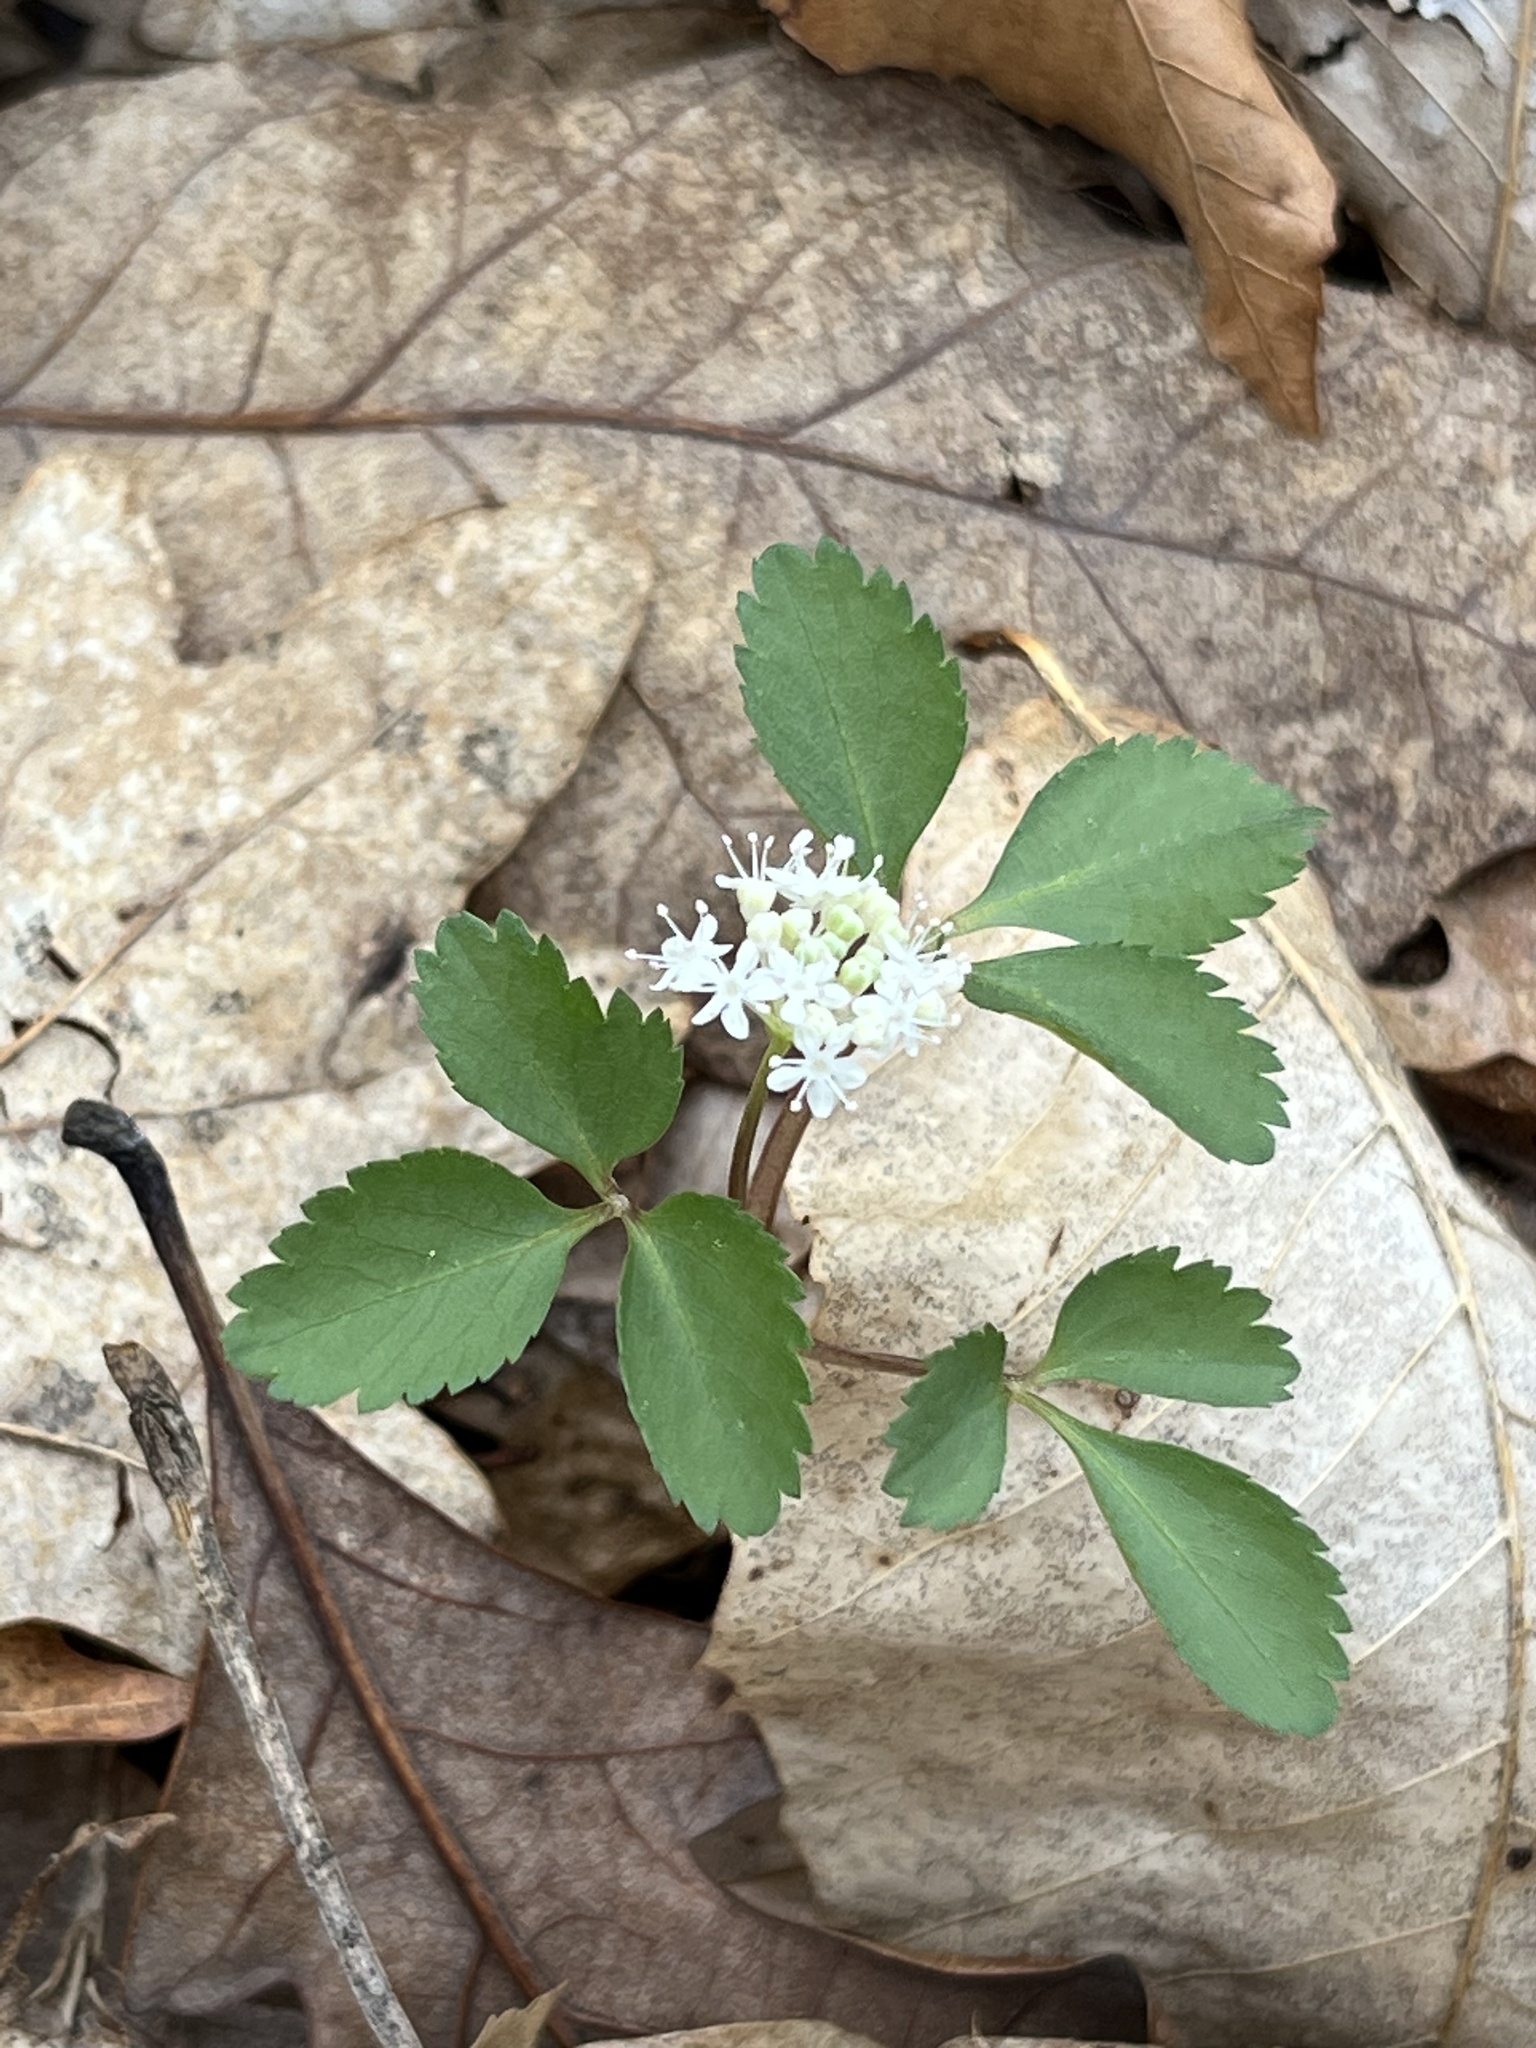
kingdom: Plantae
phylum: Tracheophyta
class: Magnoliopsida
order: Apiales
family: Araliaceae
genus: Panax
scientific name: Panax trifolius
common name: Dwarf ginseng
